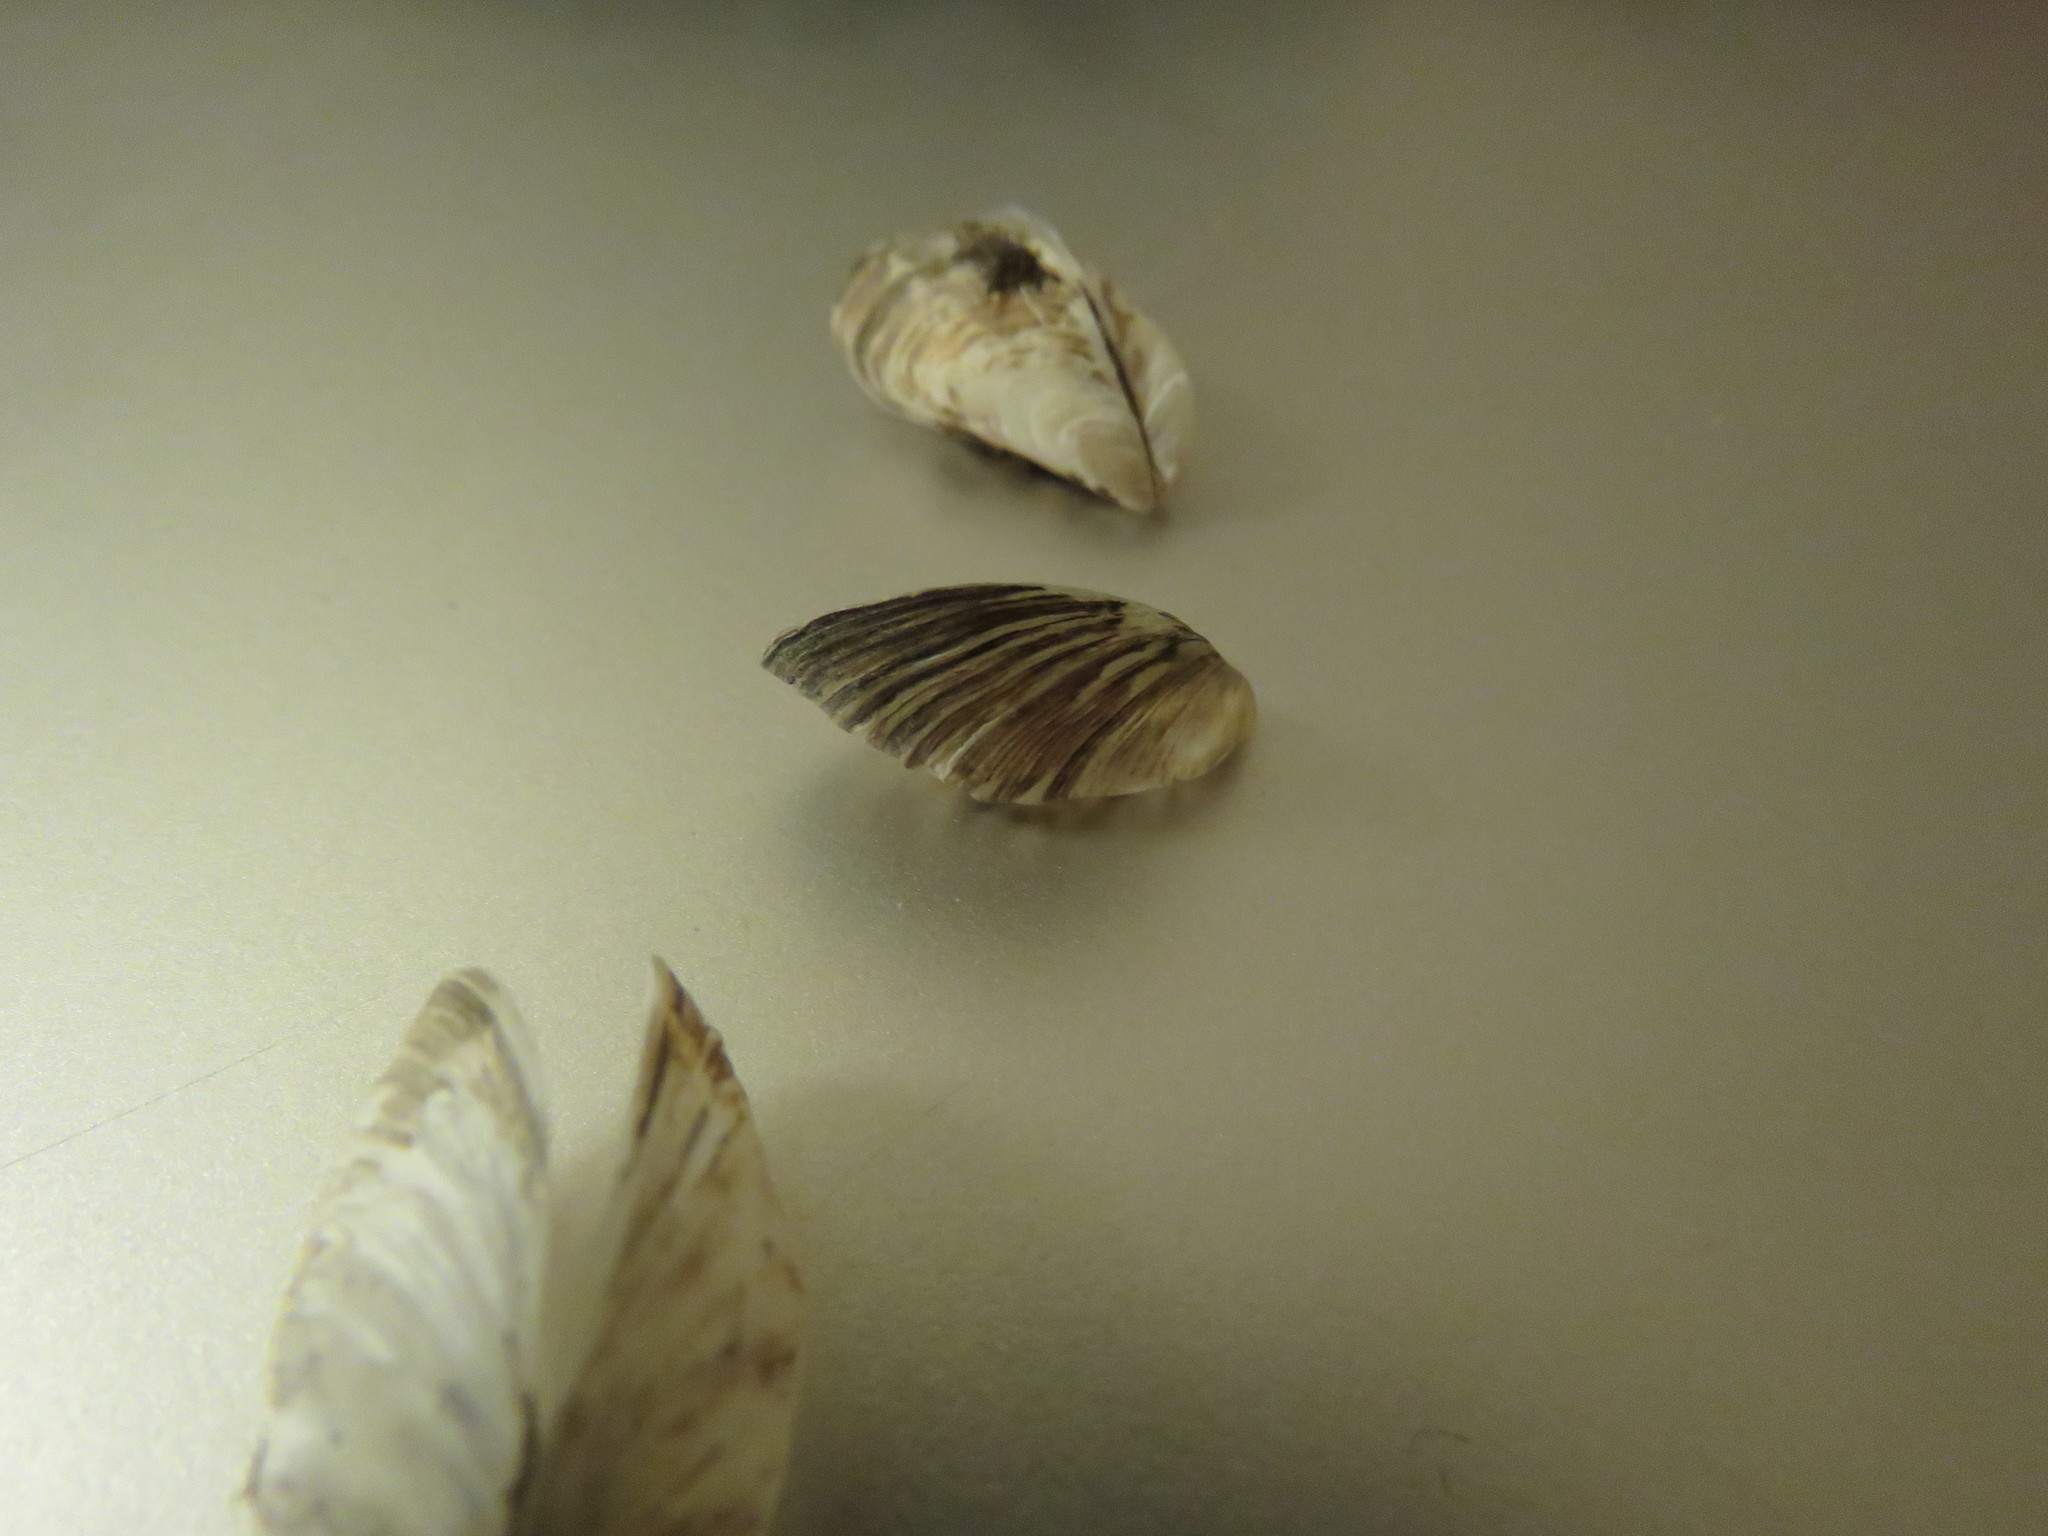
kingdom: Animalia
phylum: Mollusca
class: Bivalvia
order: Myida
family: Dreissenidae
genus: Dreissena
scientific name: Dreissena polymorpha
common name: Zebra mussel
